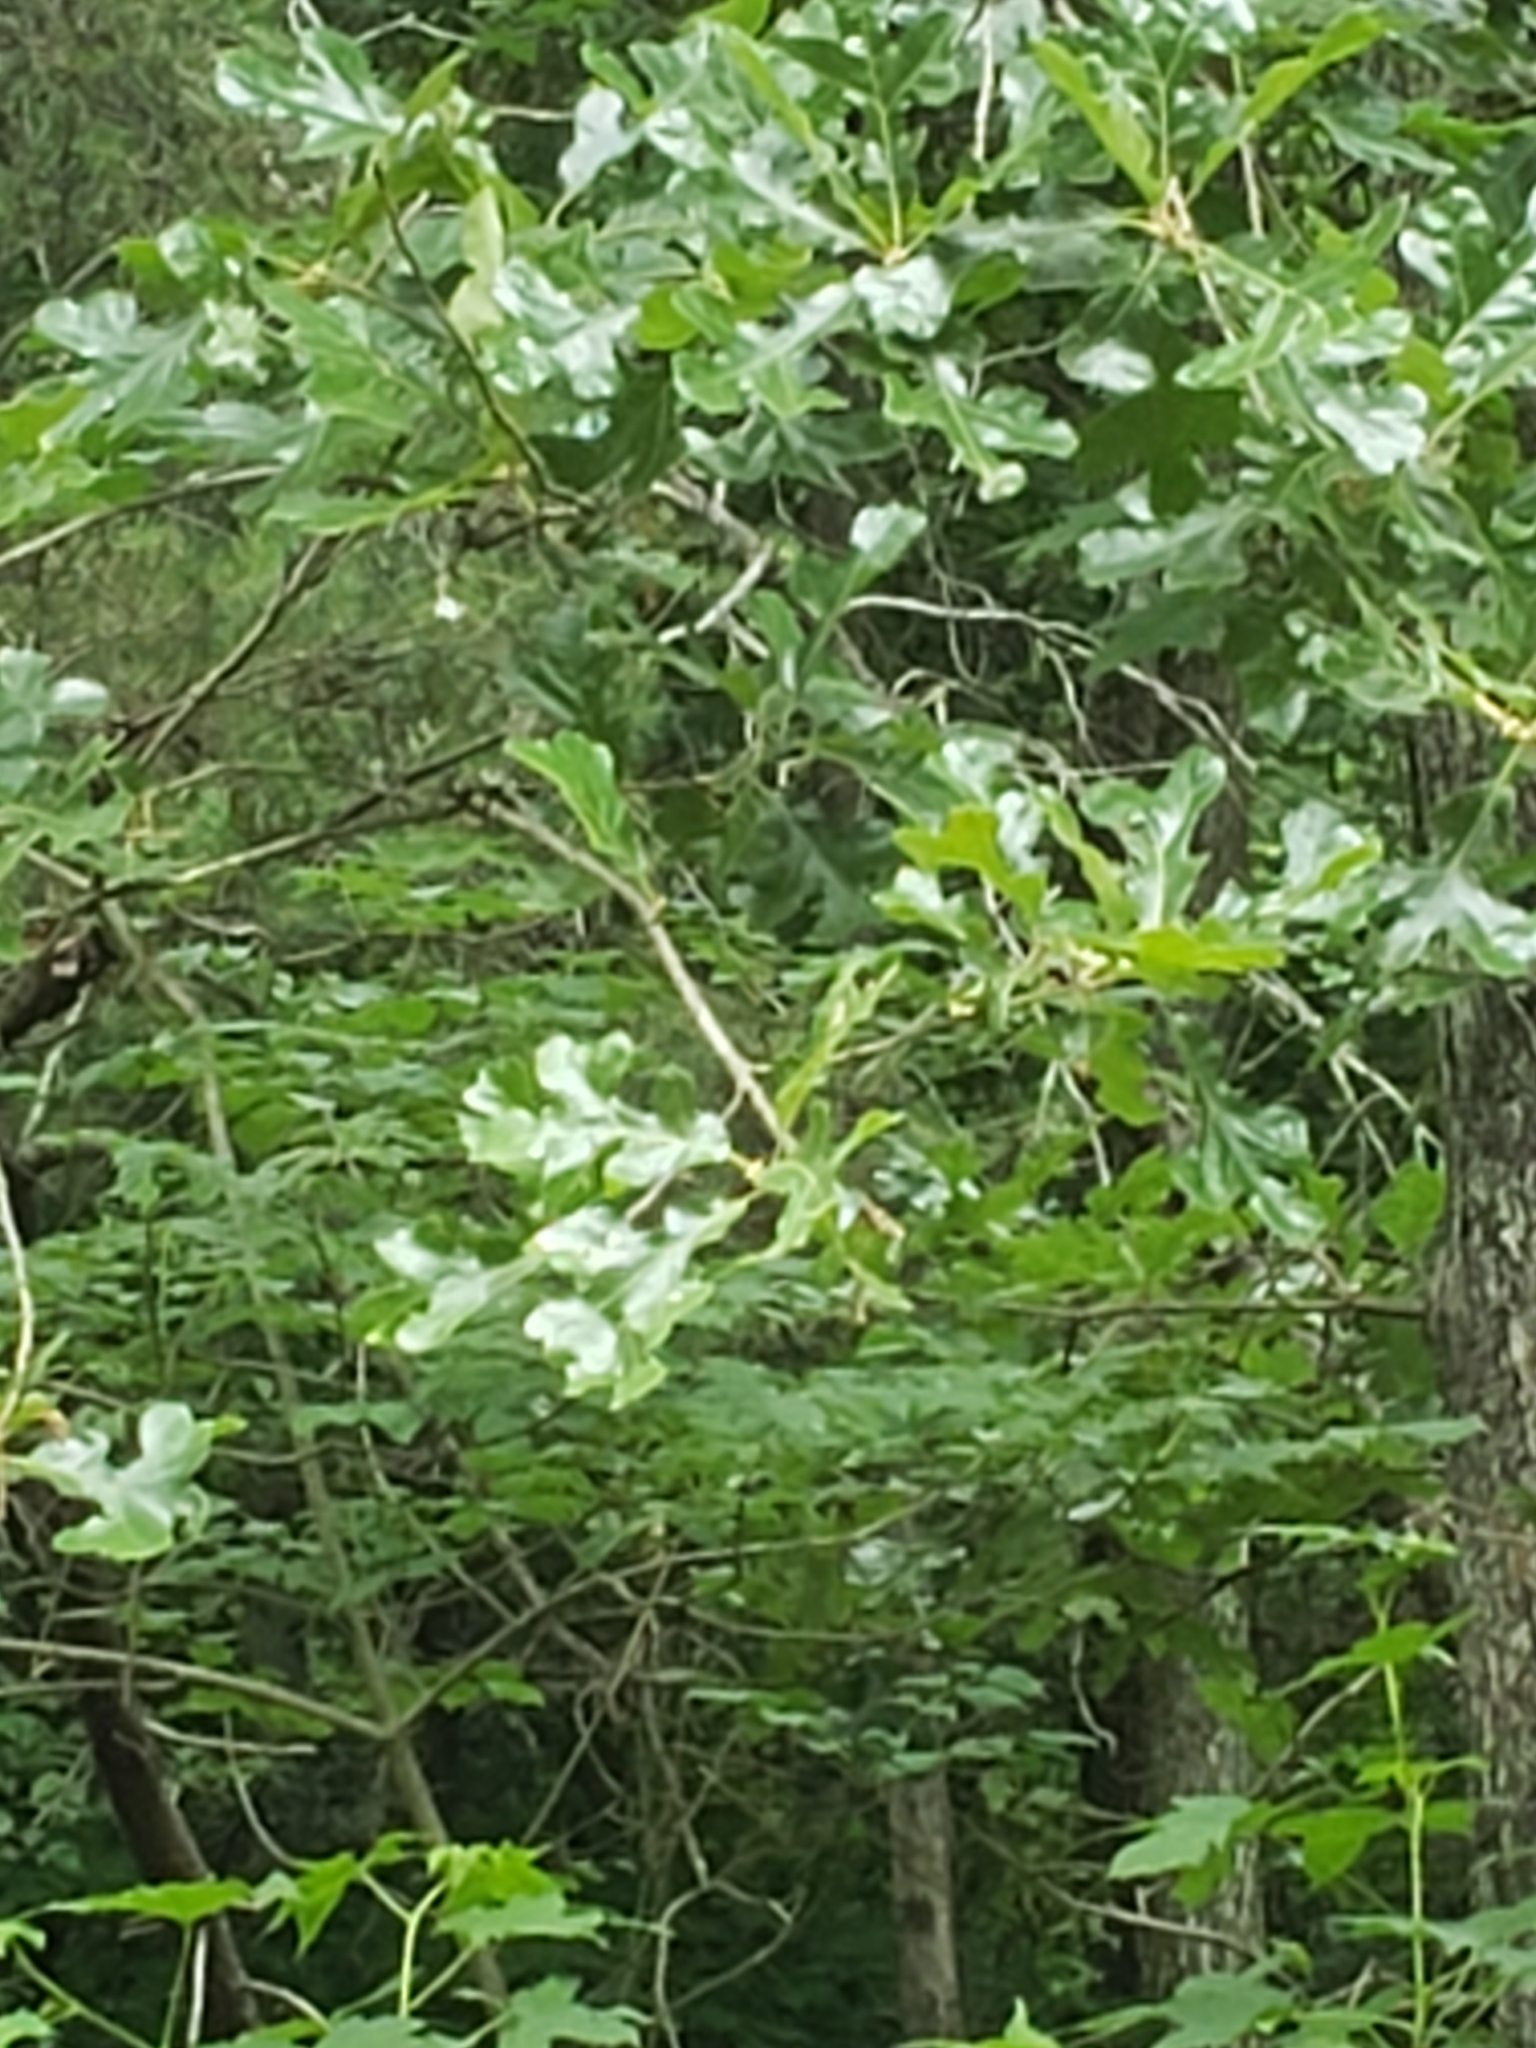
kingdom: Plantae
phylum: Tracheophyta
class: Magnoliopsida
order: Fagales
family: Fagaceae
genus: Quercus
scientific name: Quercus stellata
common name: Post oak
